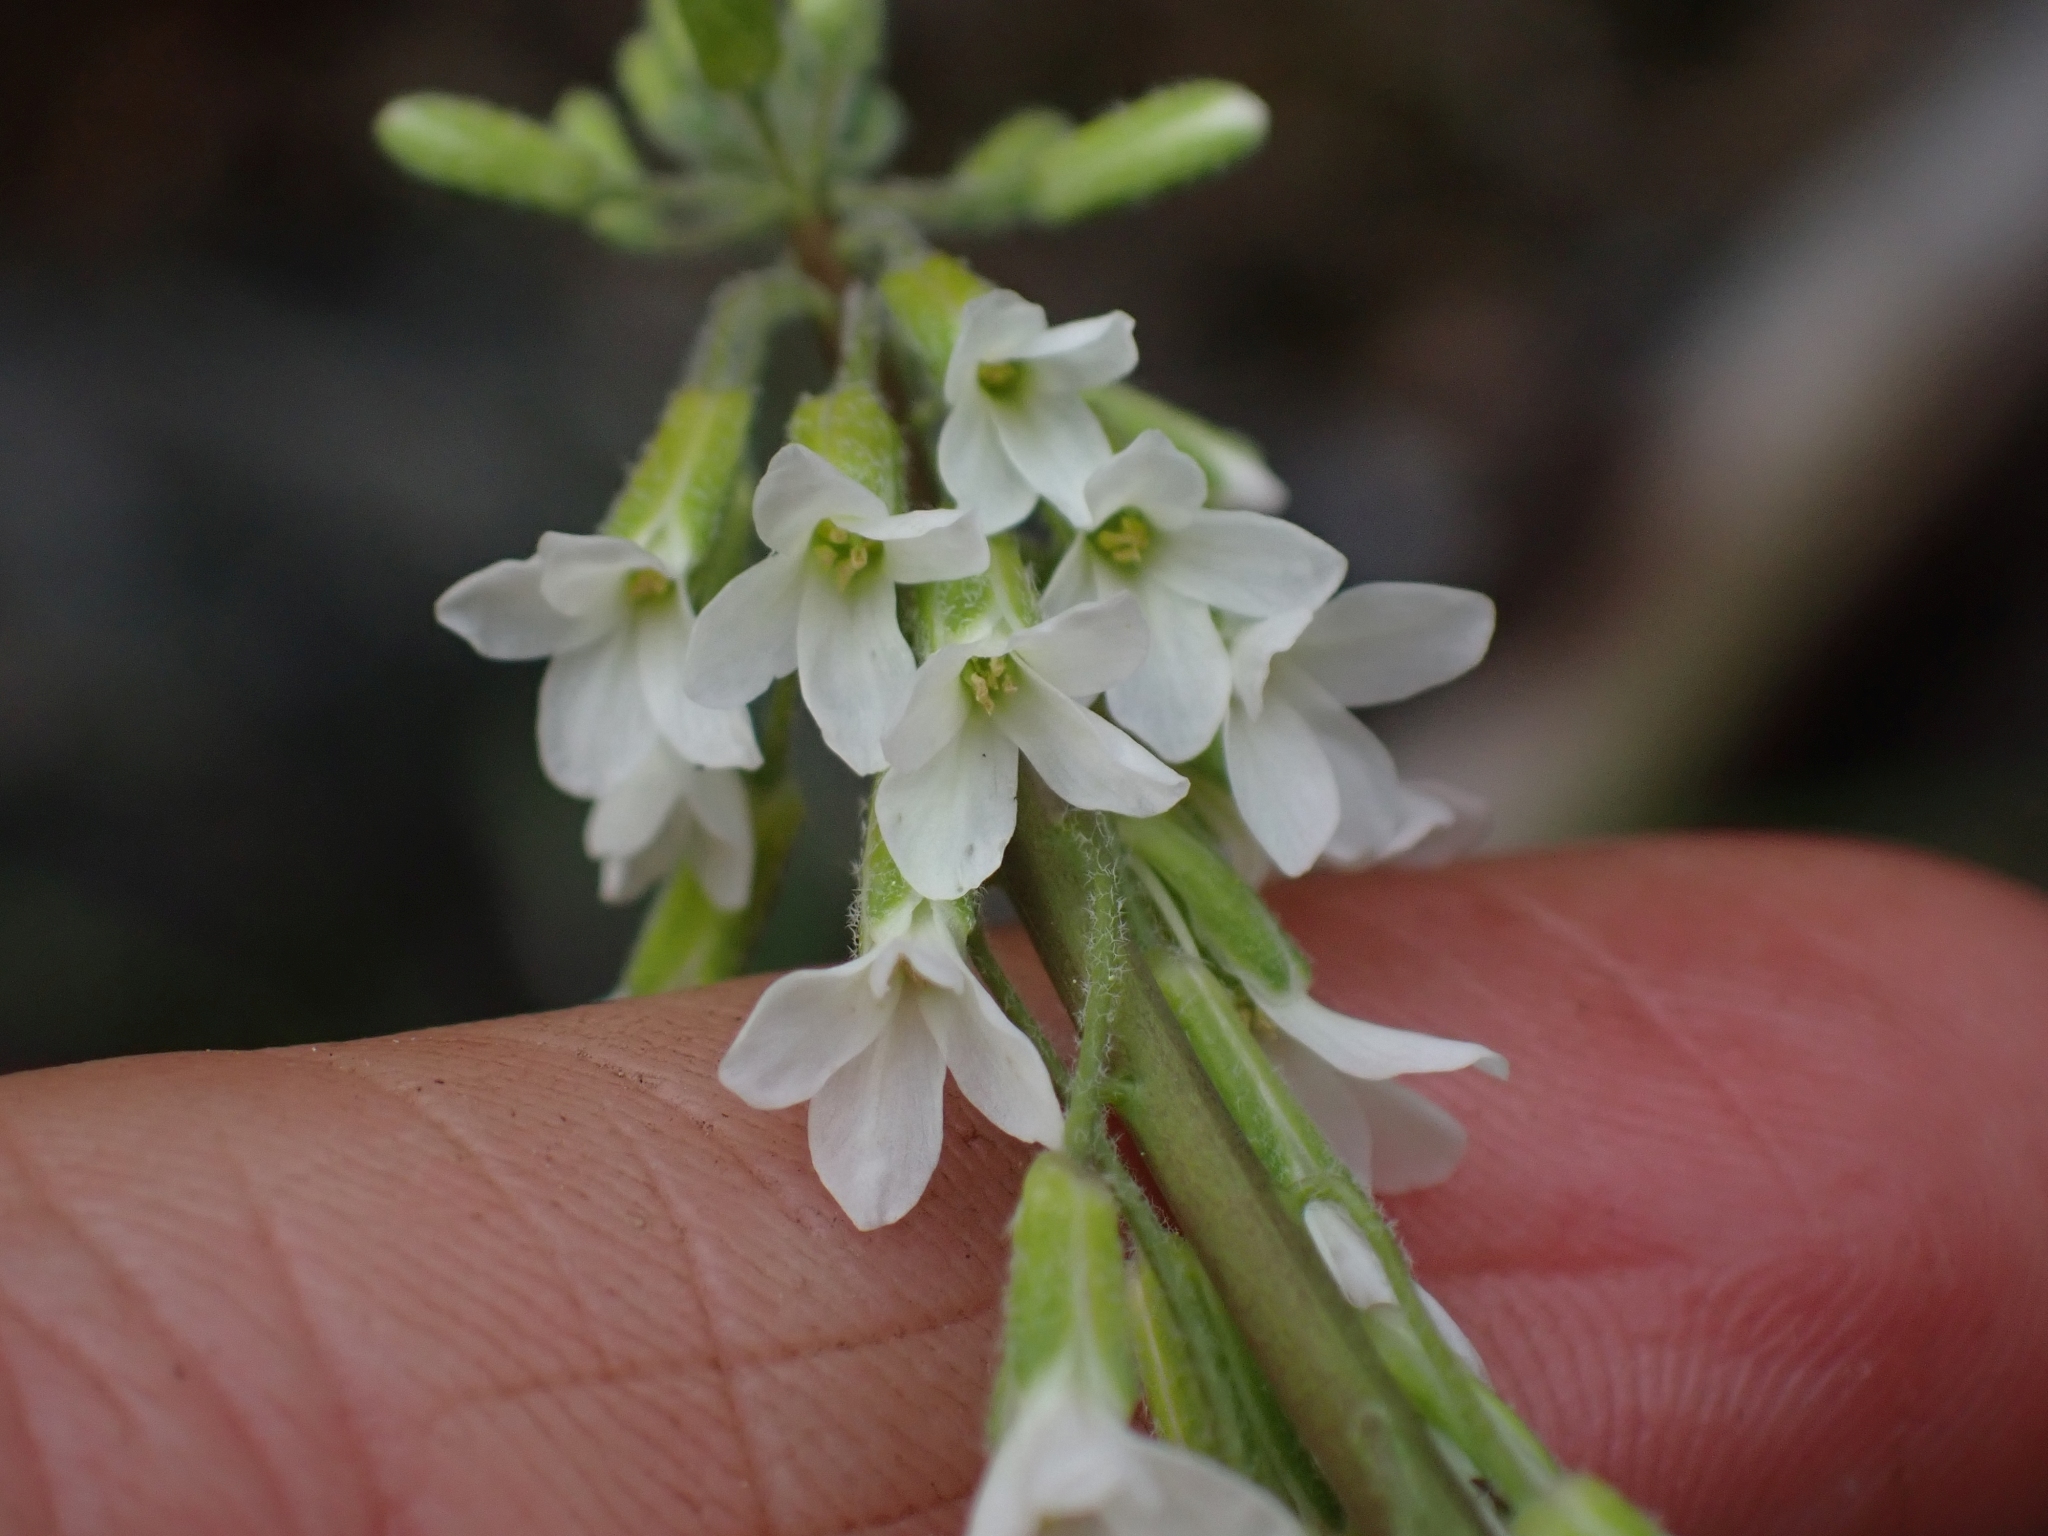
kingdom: Plantae
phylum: Tracheophyta
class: Magnoliopsida
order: Brassicales
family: Brassicaceae
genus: Boechera
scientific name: Boechera retrofracta
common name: Dangling suncress
